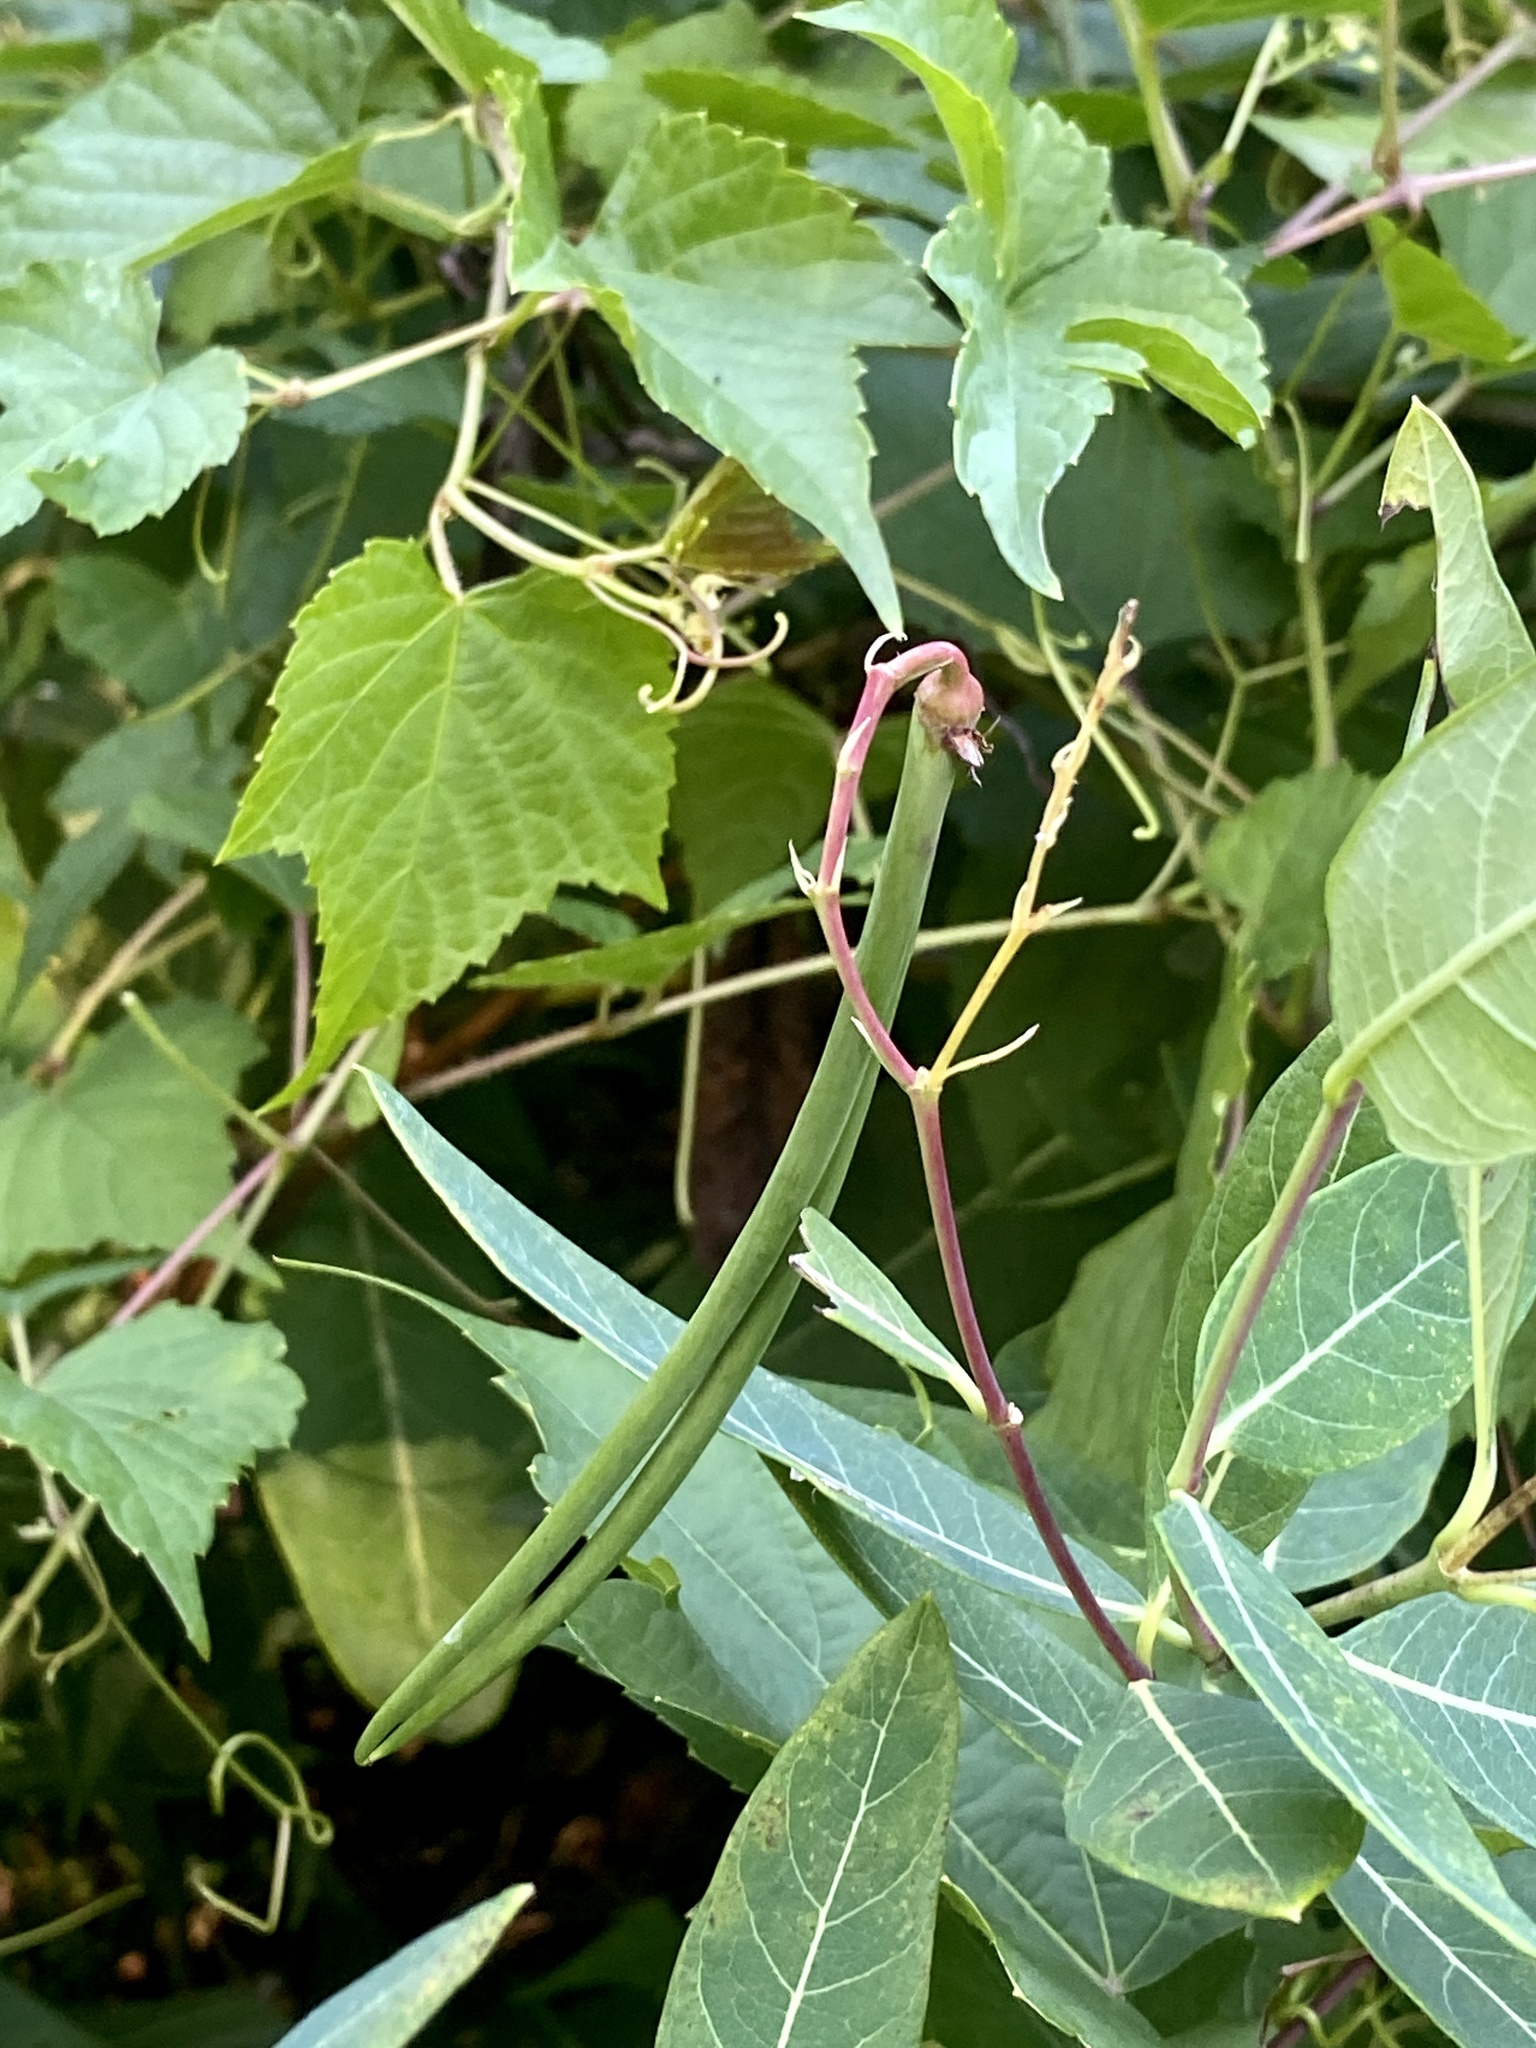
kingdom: Plantae
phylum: Tracheophyta
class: Magnoliopsida
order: Gentianales
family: Apocynaceae
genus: Apocynum
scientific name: Apocynum cannabinum
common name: Hemp dogbane
